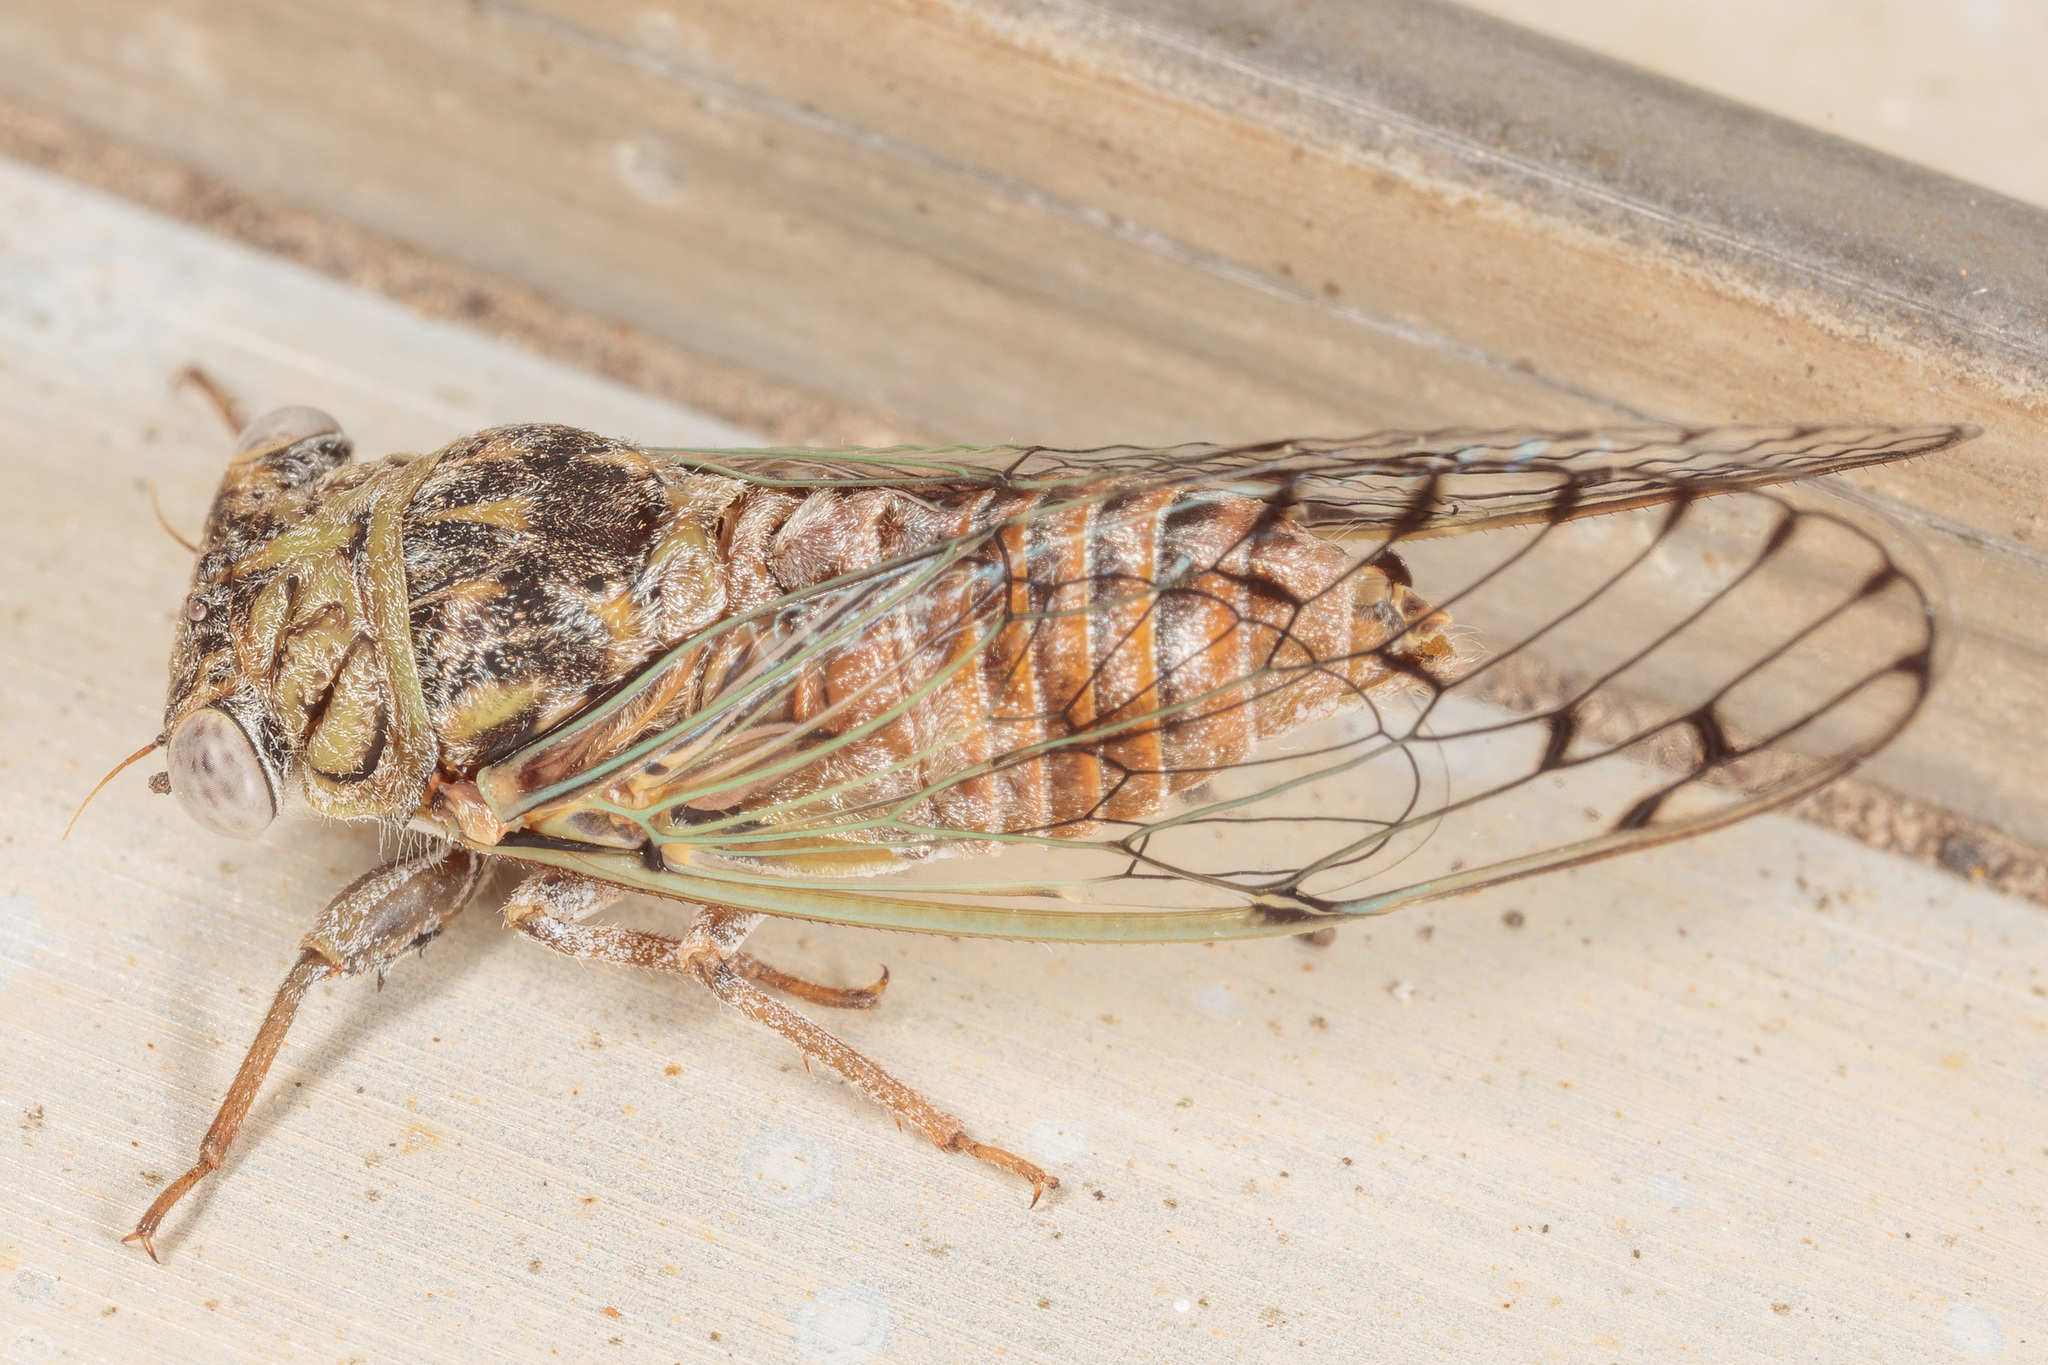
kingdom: Animalia
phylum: Arthropoda
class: Insecta
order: Hemiptera
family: Cicadidae
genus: Pacarina
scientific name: Pacarina puella
